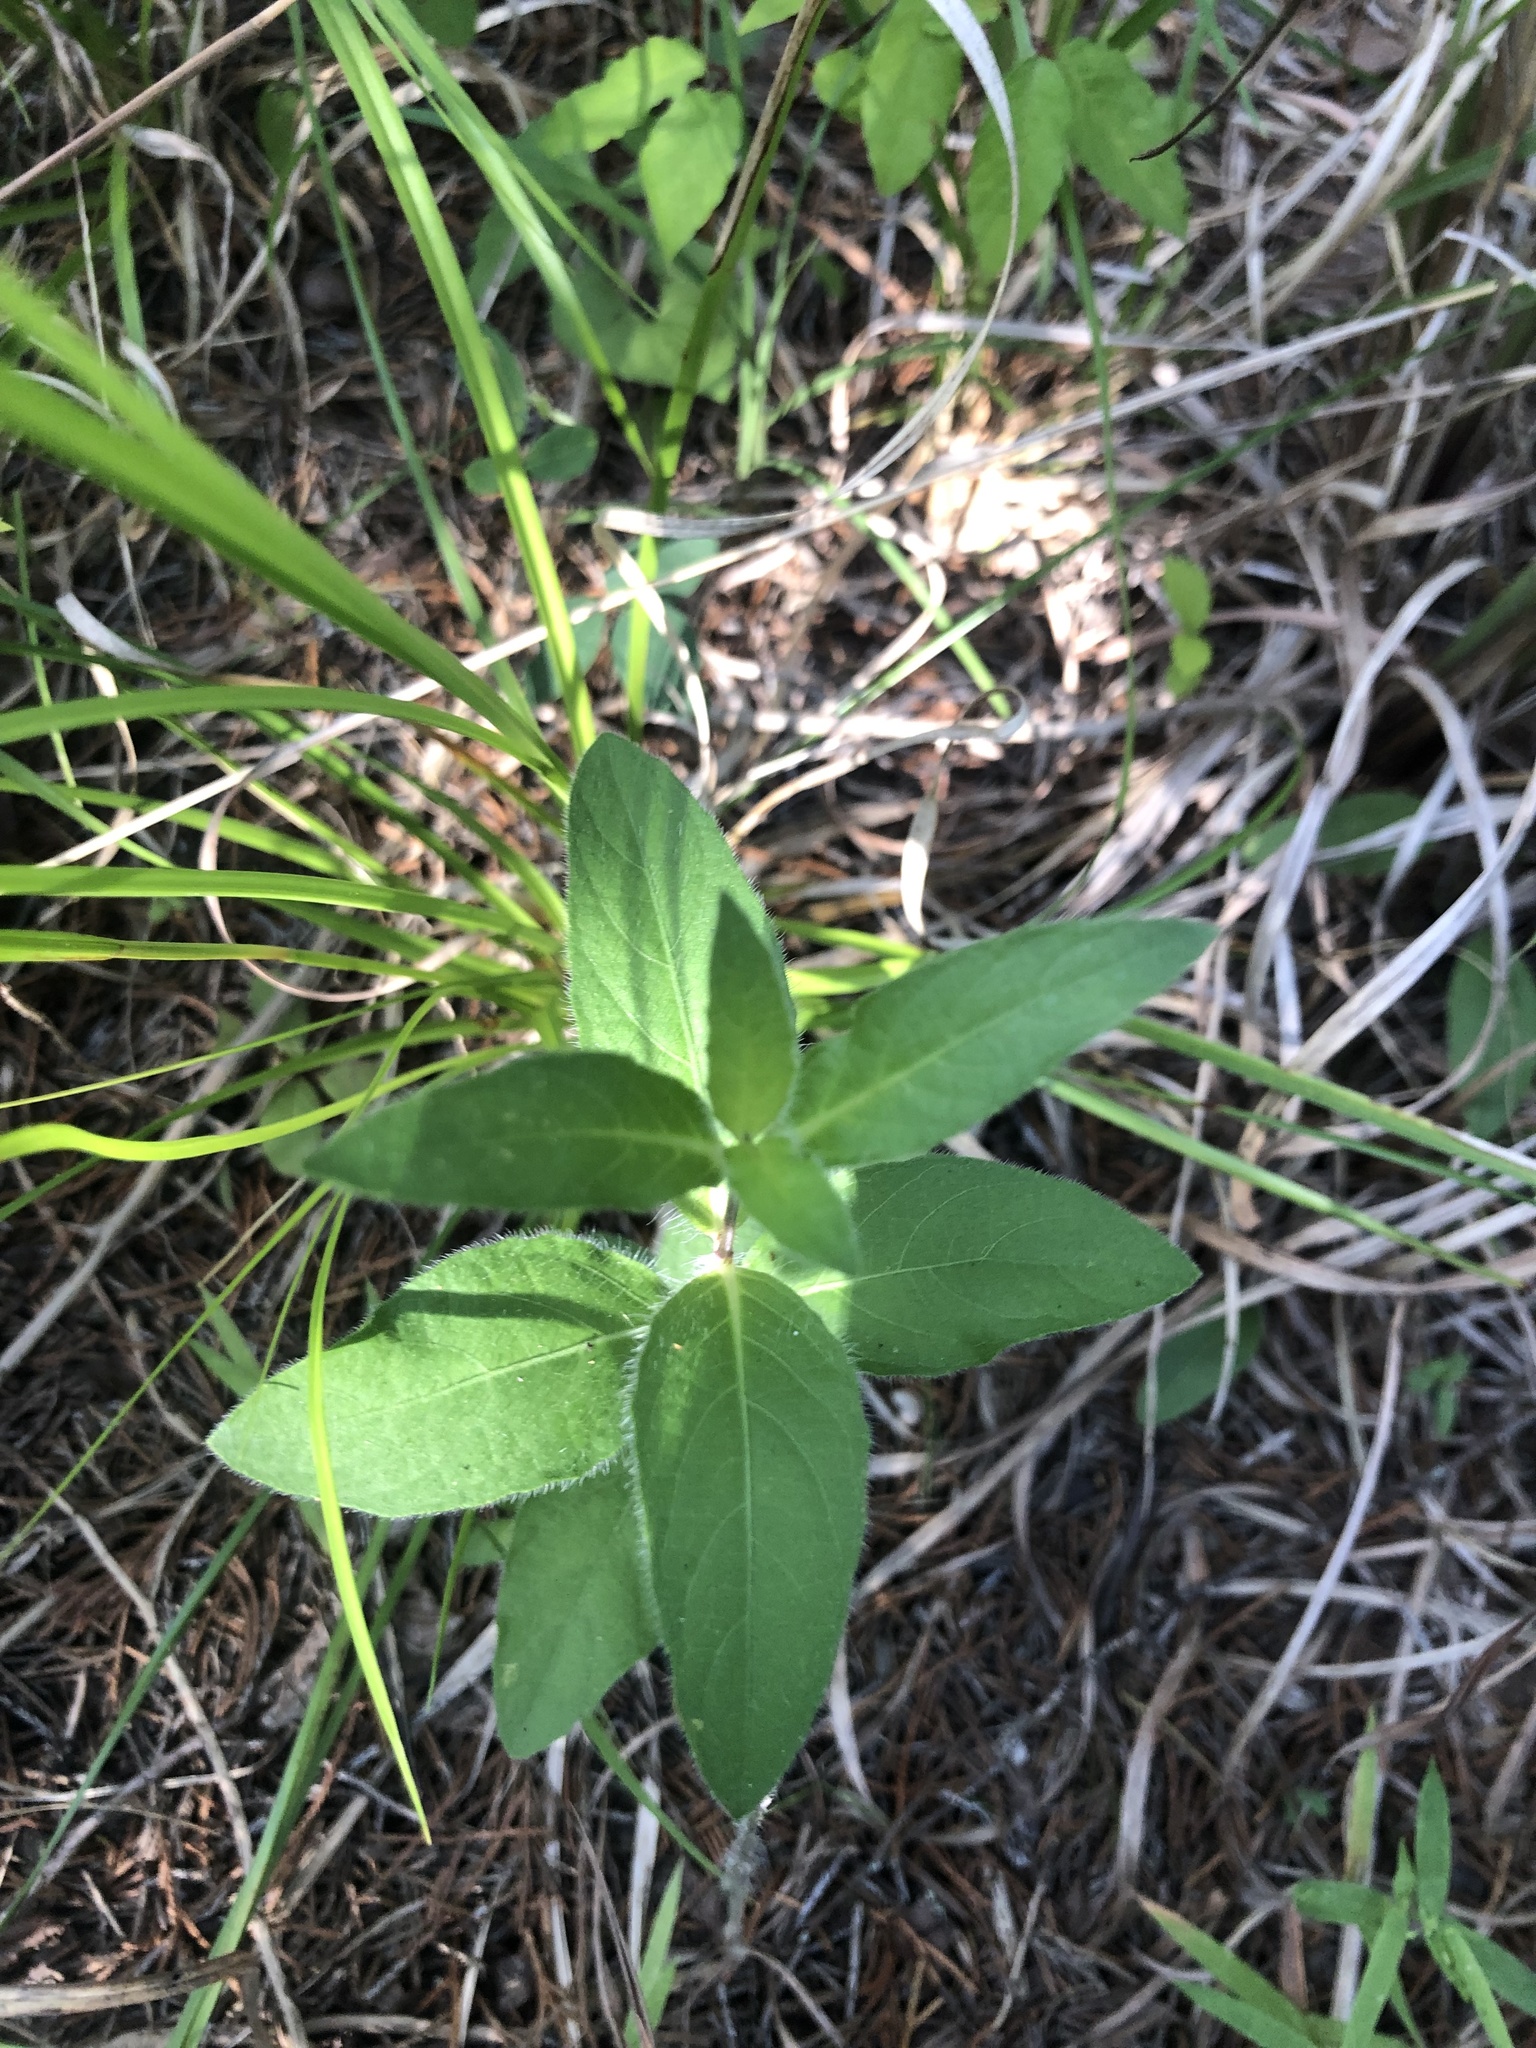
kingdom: Plantae
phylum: Tracheophyta
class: Magnoliopsida
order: Lamiales
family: Acanthaceae
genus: Ruellia
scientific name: Ruellia humilis
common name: Fringe-leaf ruellia
